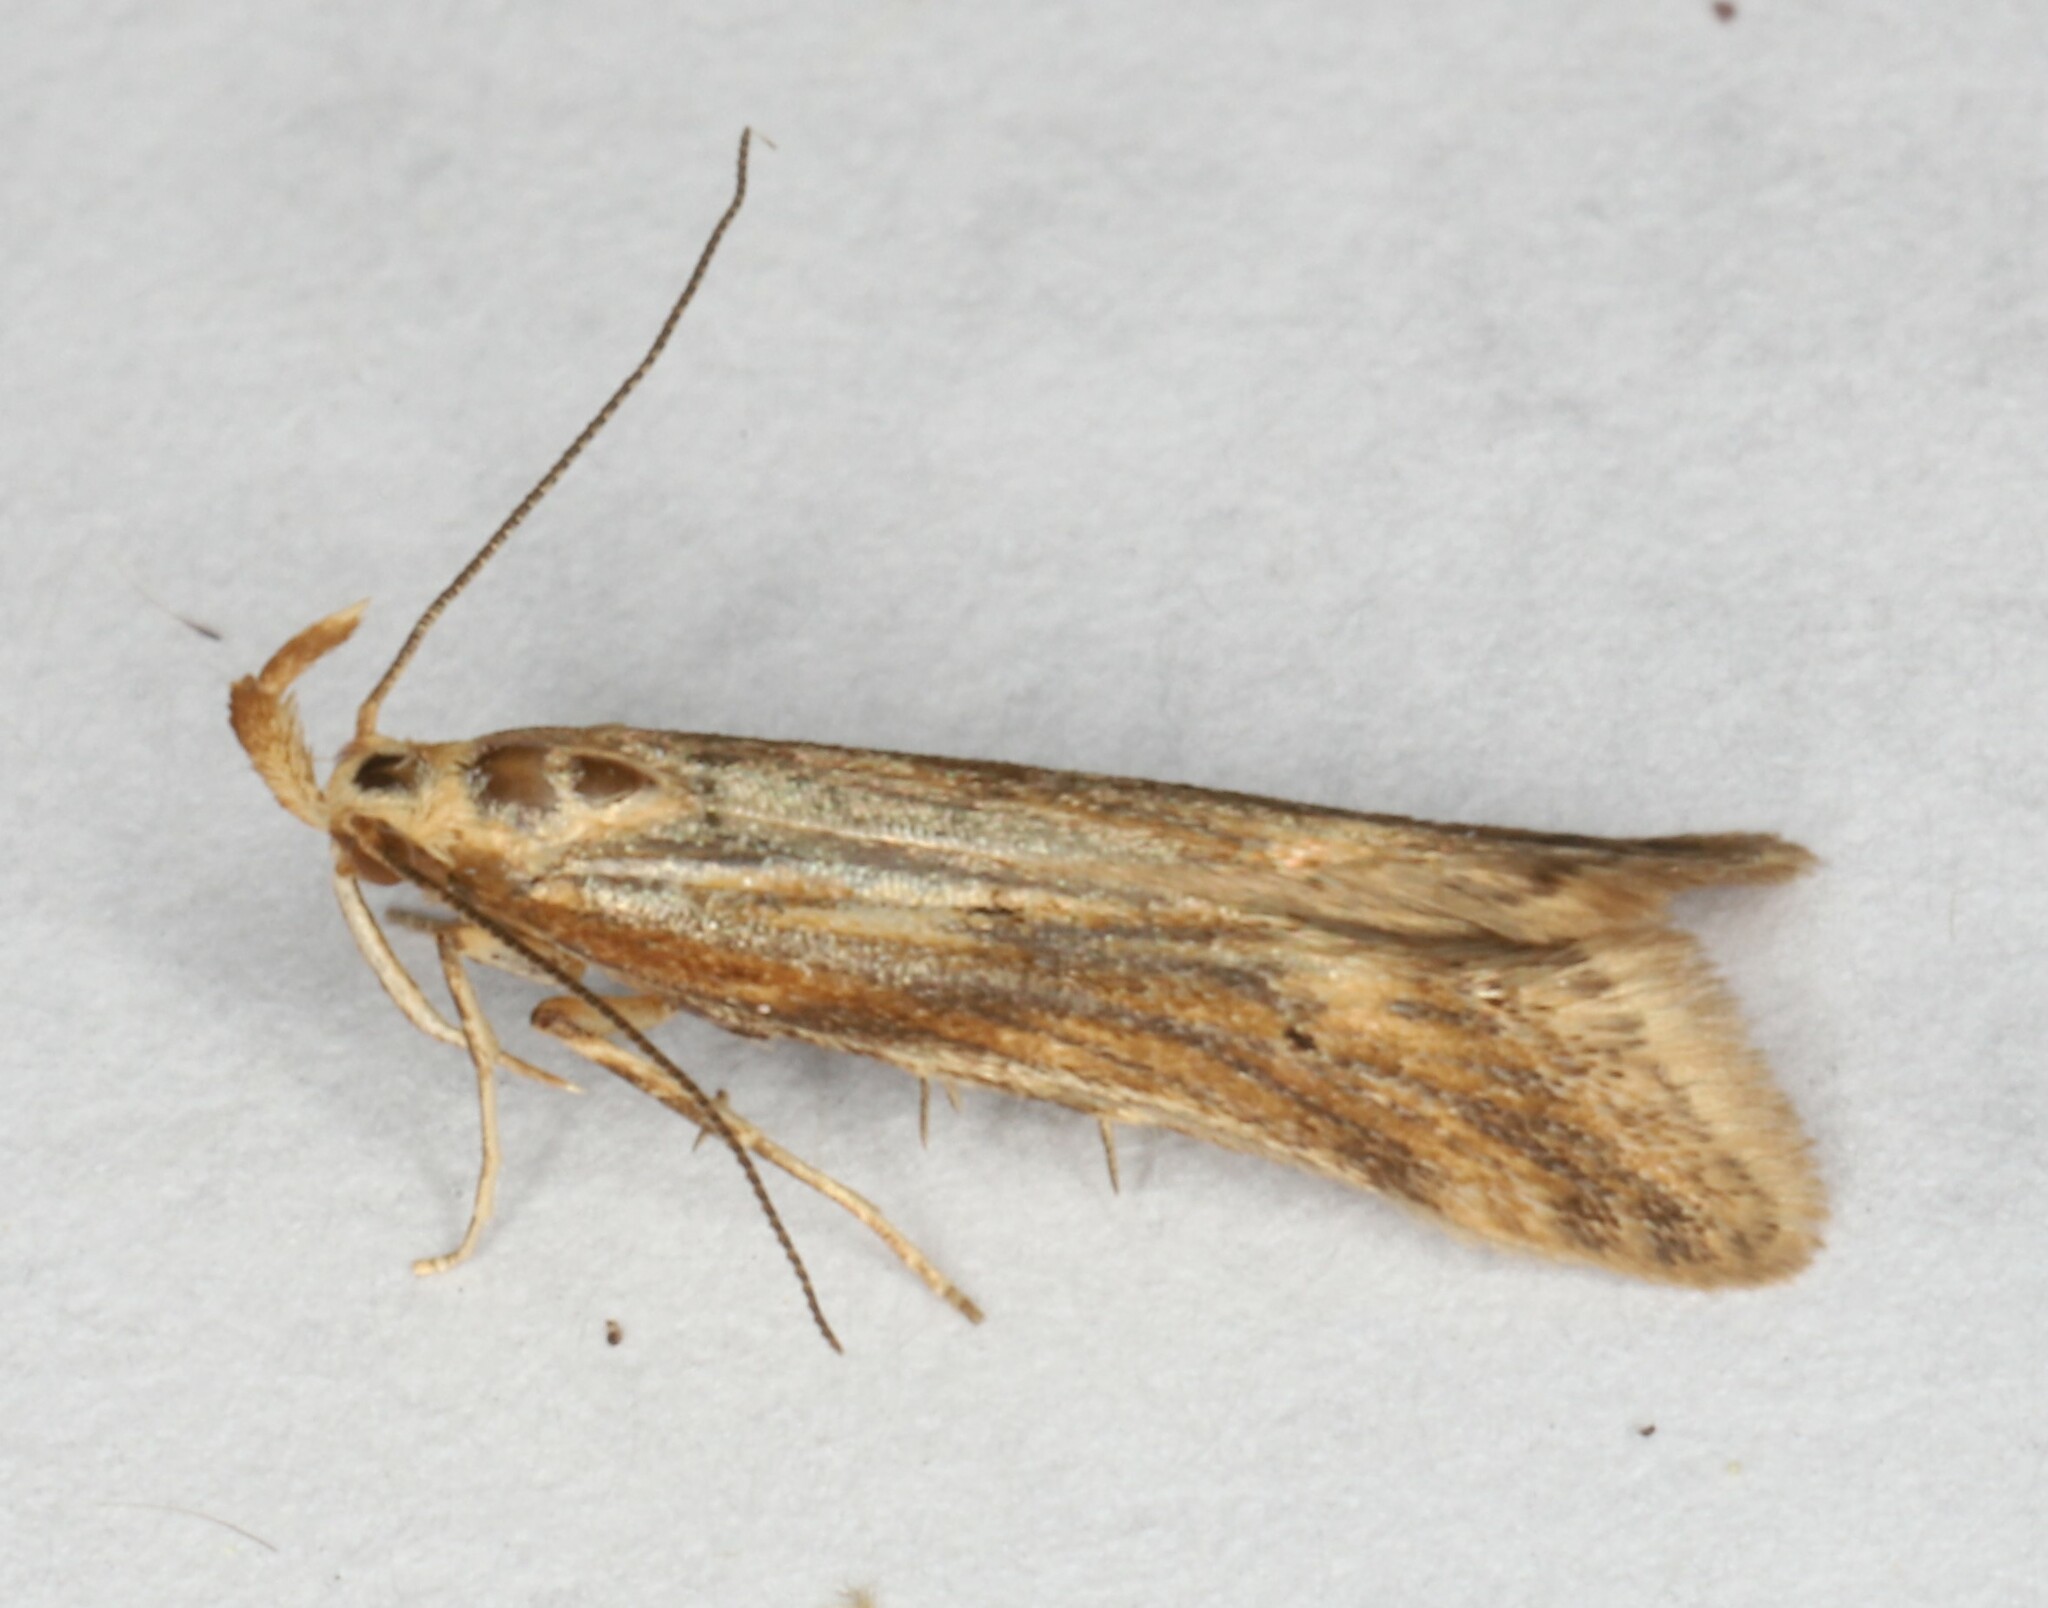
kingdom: Animalia
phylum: Arthropoda
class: Insecta
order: Lepidoptera
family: Gelechiidae
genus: Metzneria
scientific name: Metzneria lappella
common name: Burdock neb
